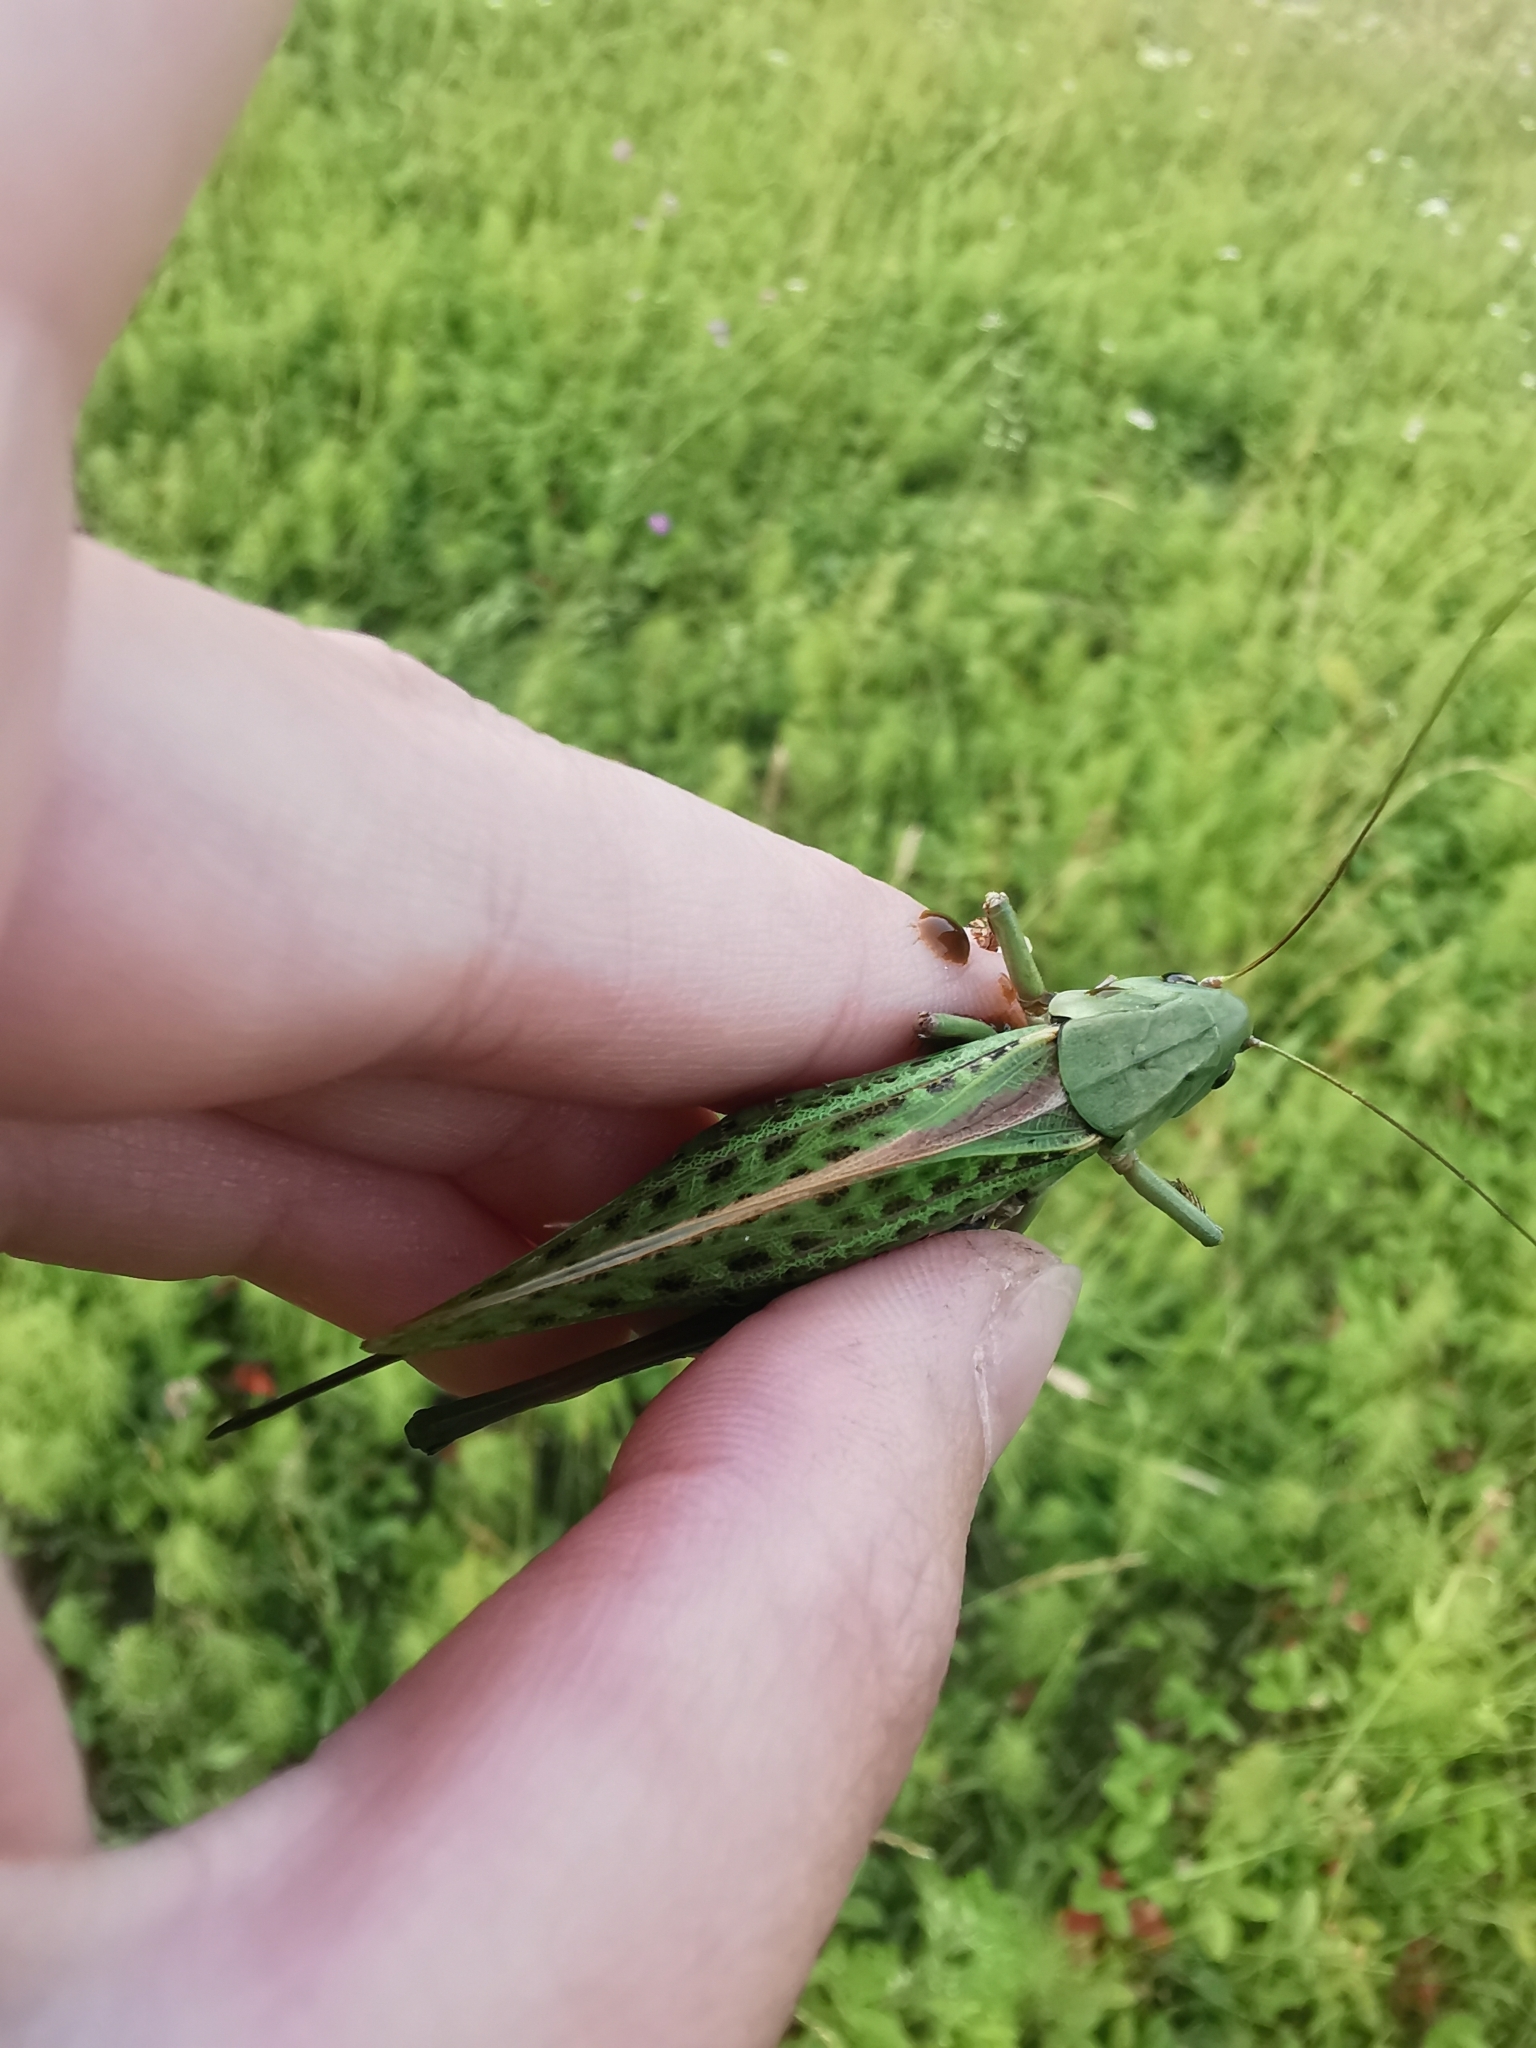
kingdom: Animalia
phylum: Arthropoda
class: Insecta
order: Orthoptera
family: Tettigoniidae
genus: Decticus
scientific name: Decticus verrucivorus
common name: Wart-biter
